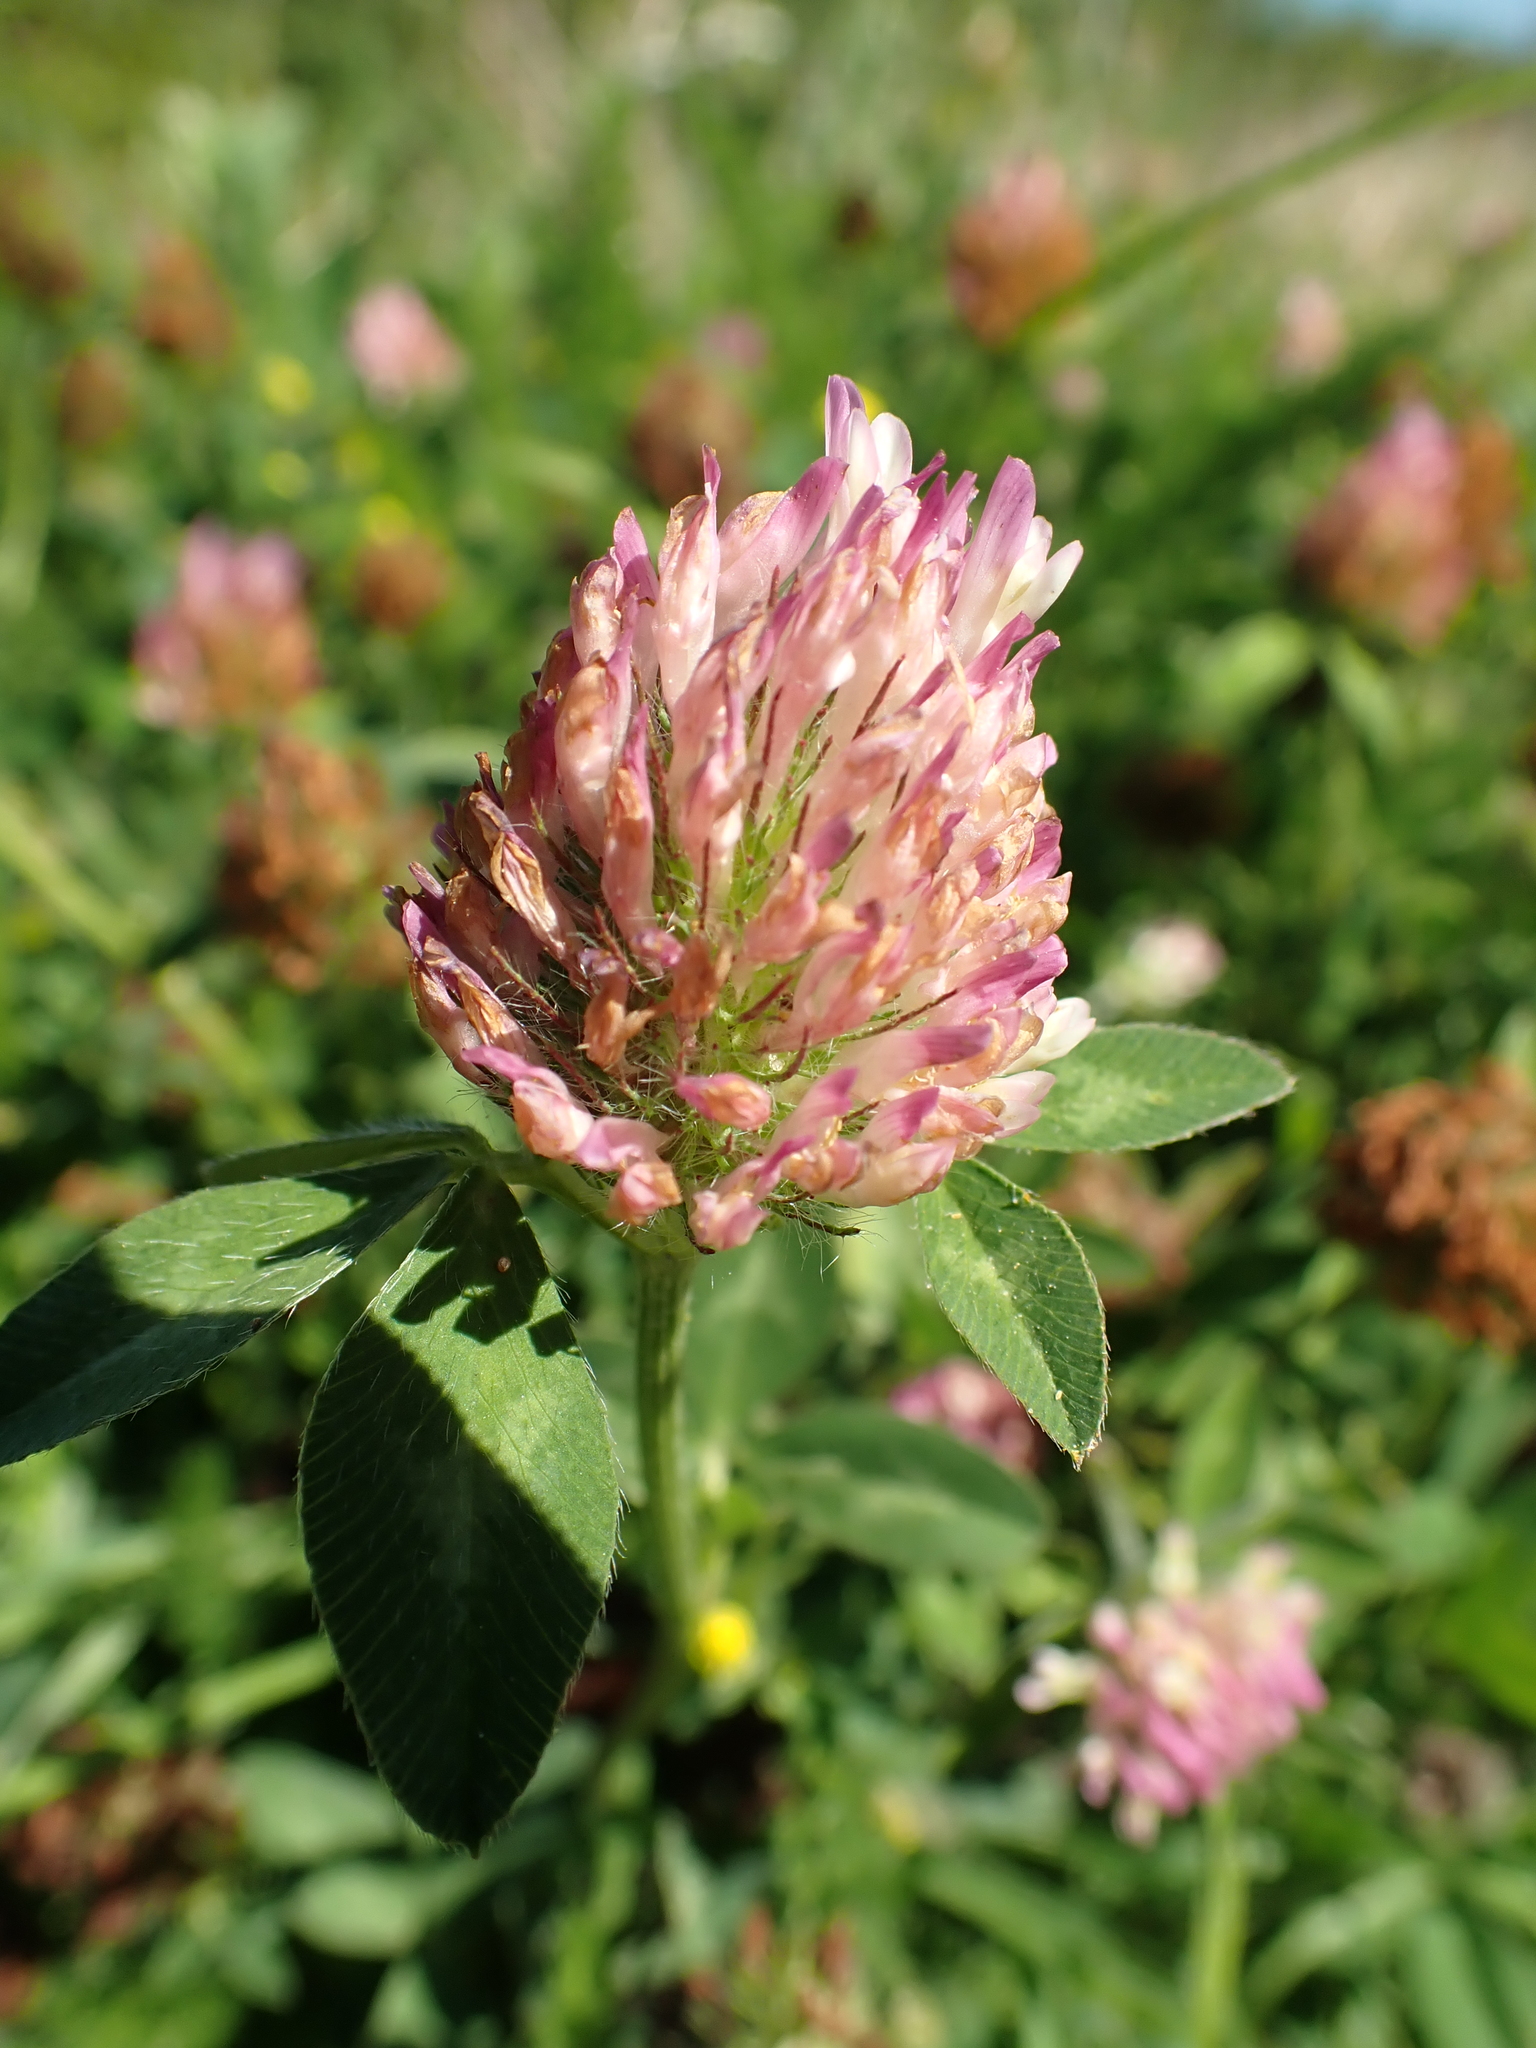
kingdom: Plantae
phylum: Tracheophyta
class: Magnoliopsida
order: Fabales
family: Fabaceae
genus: Trifolium
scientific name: Trifolium pratense
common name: Red clover
